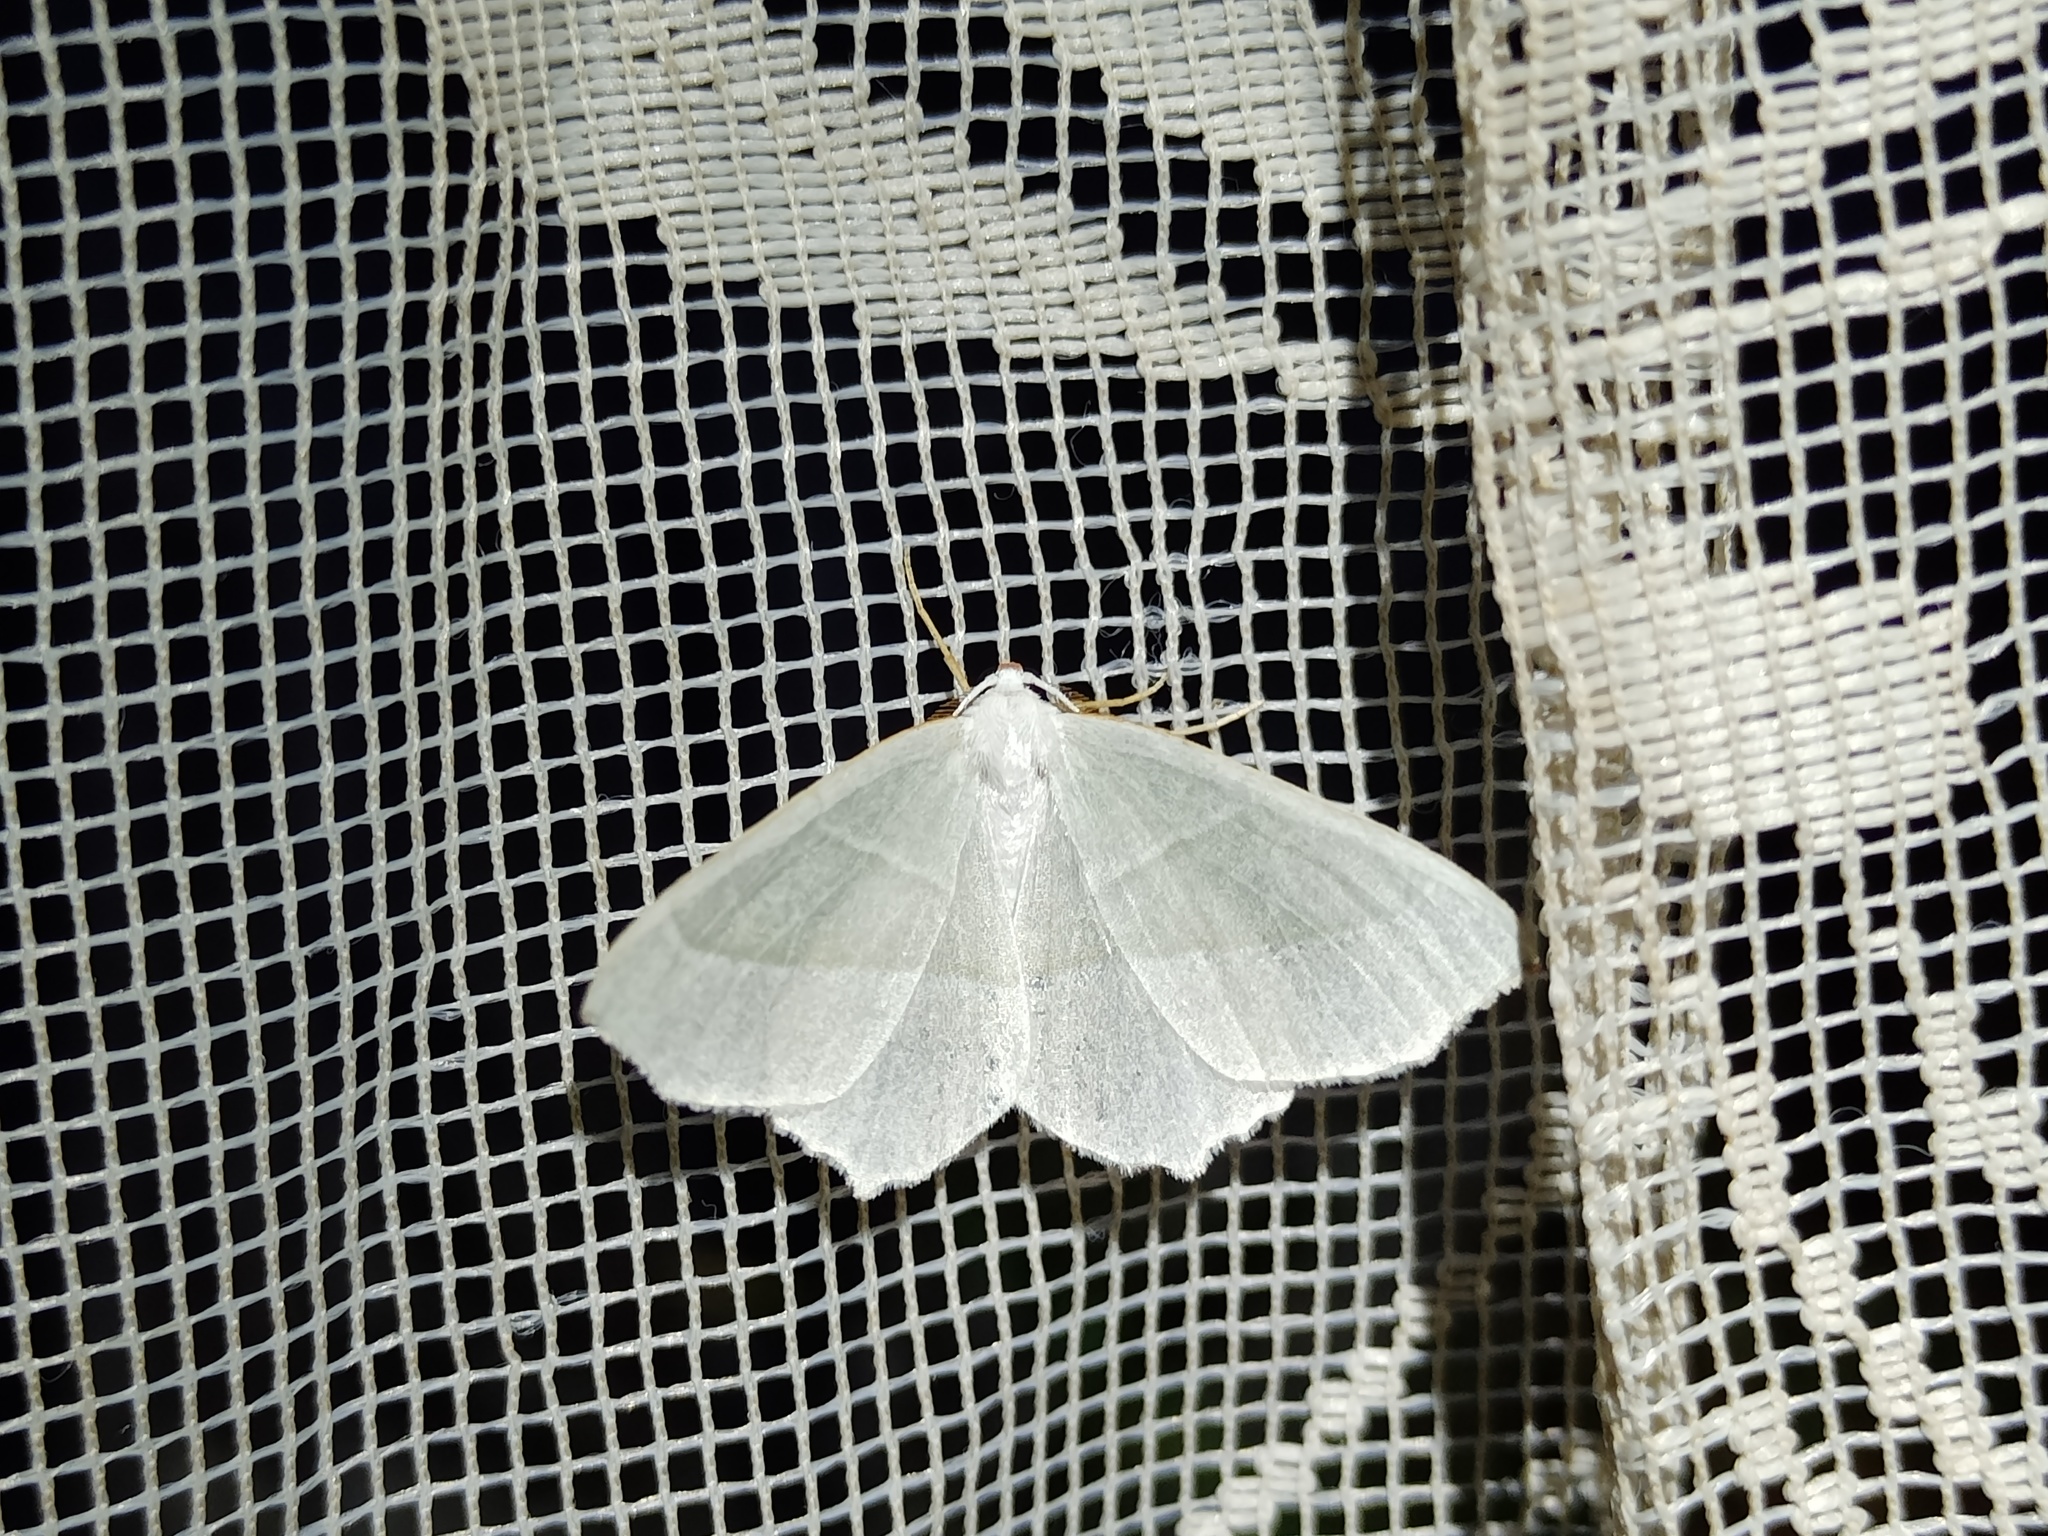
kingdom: Animalia
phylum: Arthropoda
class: Insecta
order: Lepidoptera
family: Geometridae
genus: Campaea
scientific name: Campaea margaritaria
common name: Light emerald
